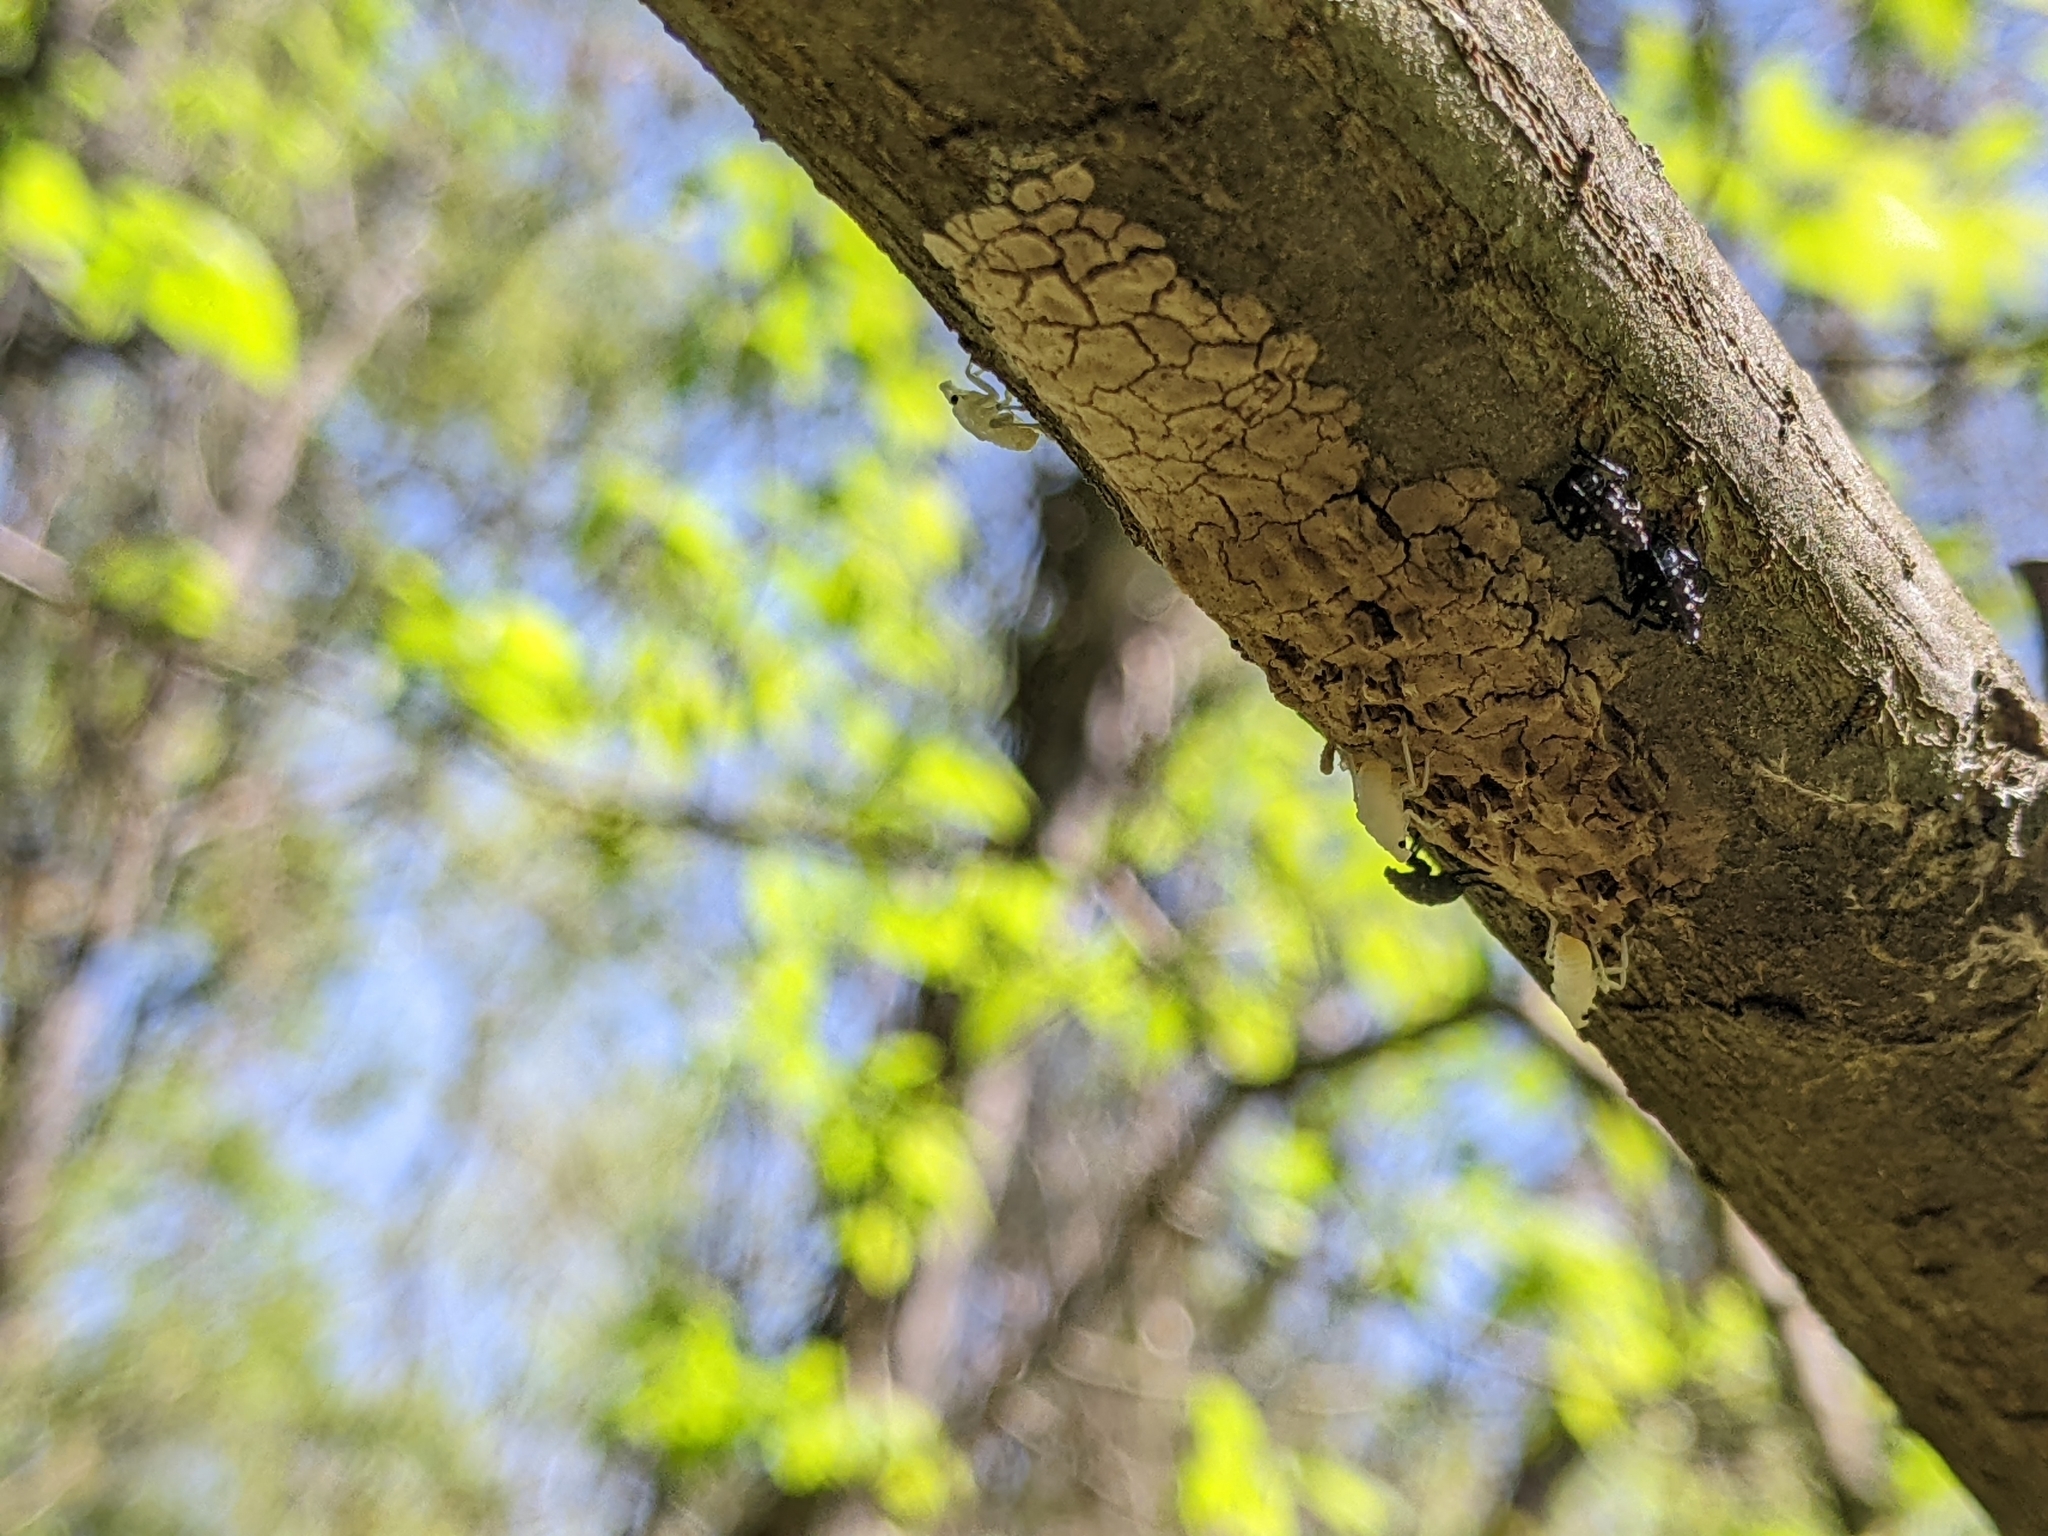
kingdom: Animalia
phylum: Arthropoda
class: Insecta
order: Hemiptera
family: Fulgoridae
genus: Lycorma
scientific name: Lycorma delicatula
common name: Spotted lanternfly
